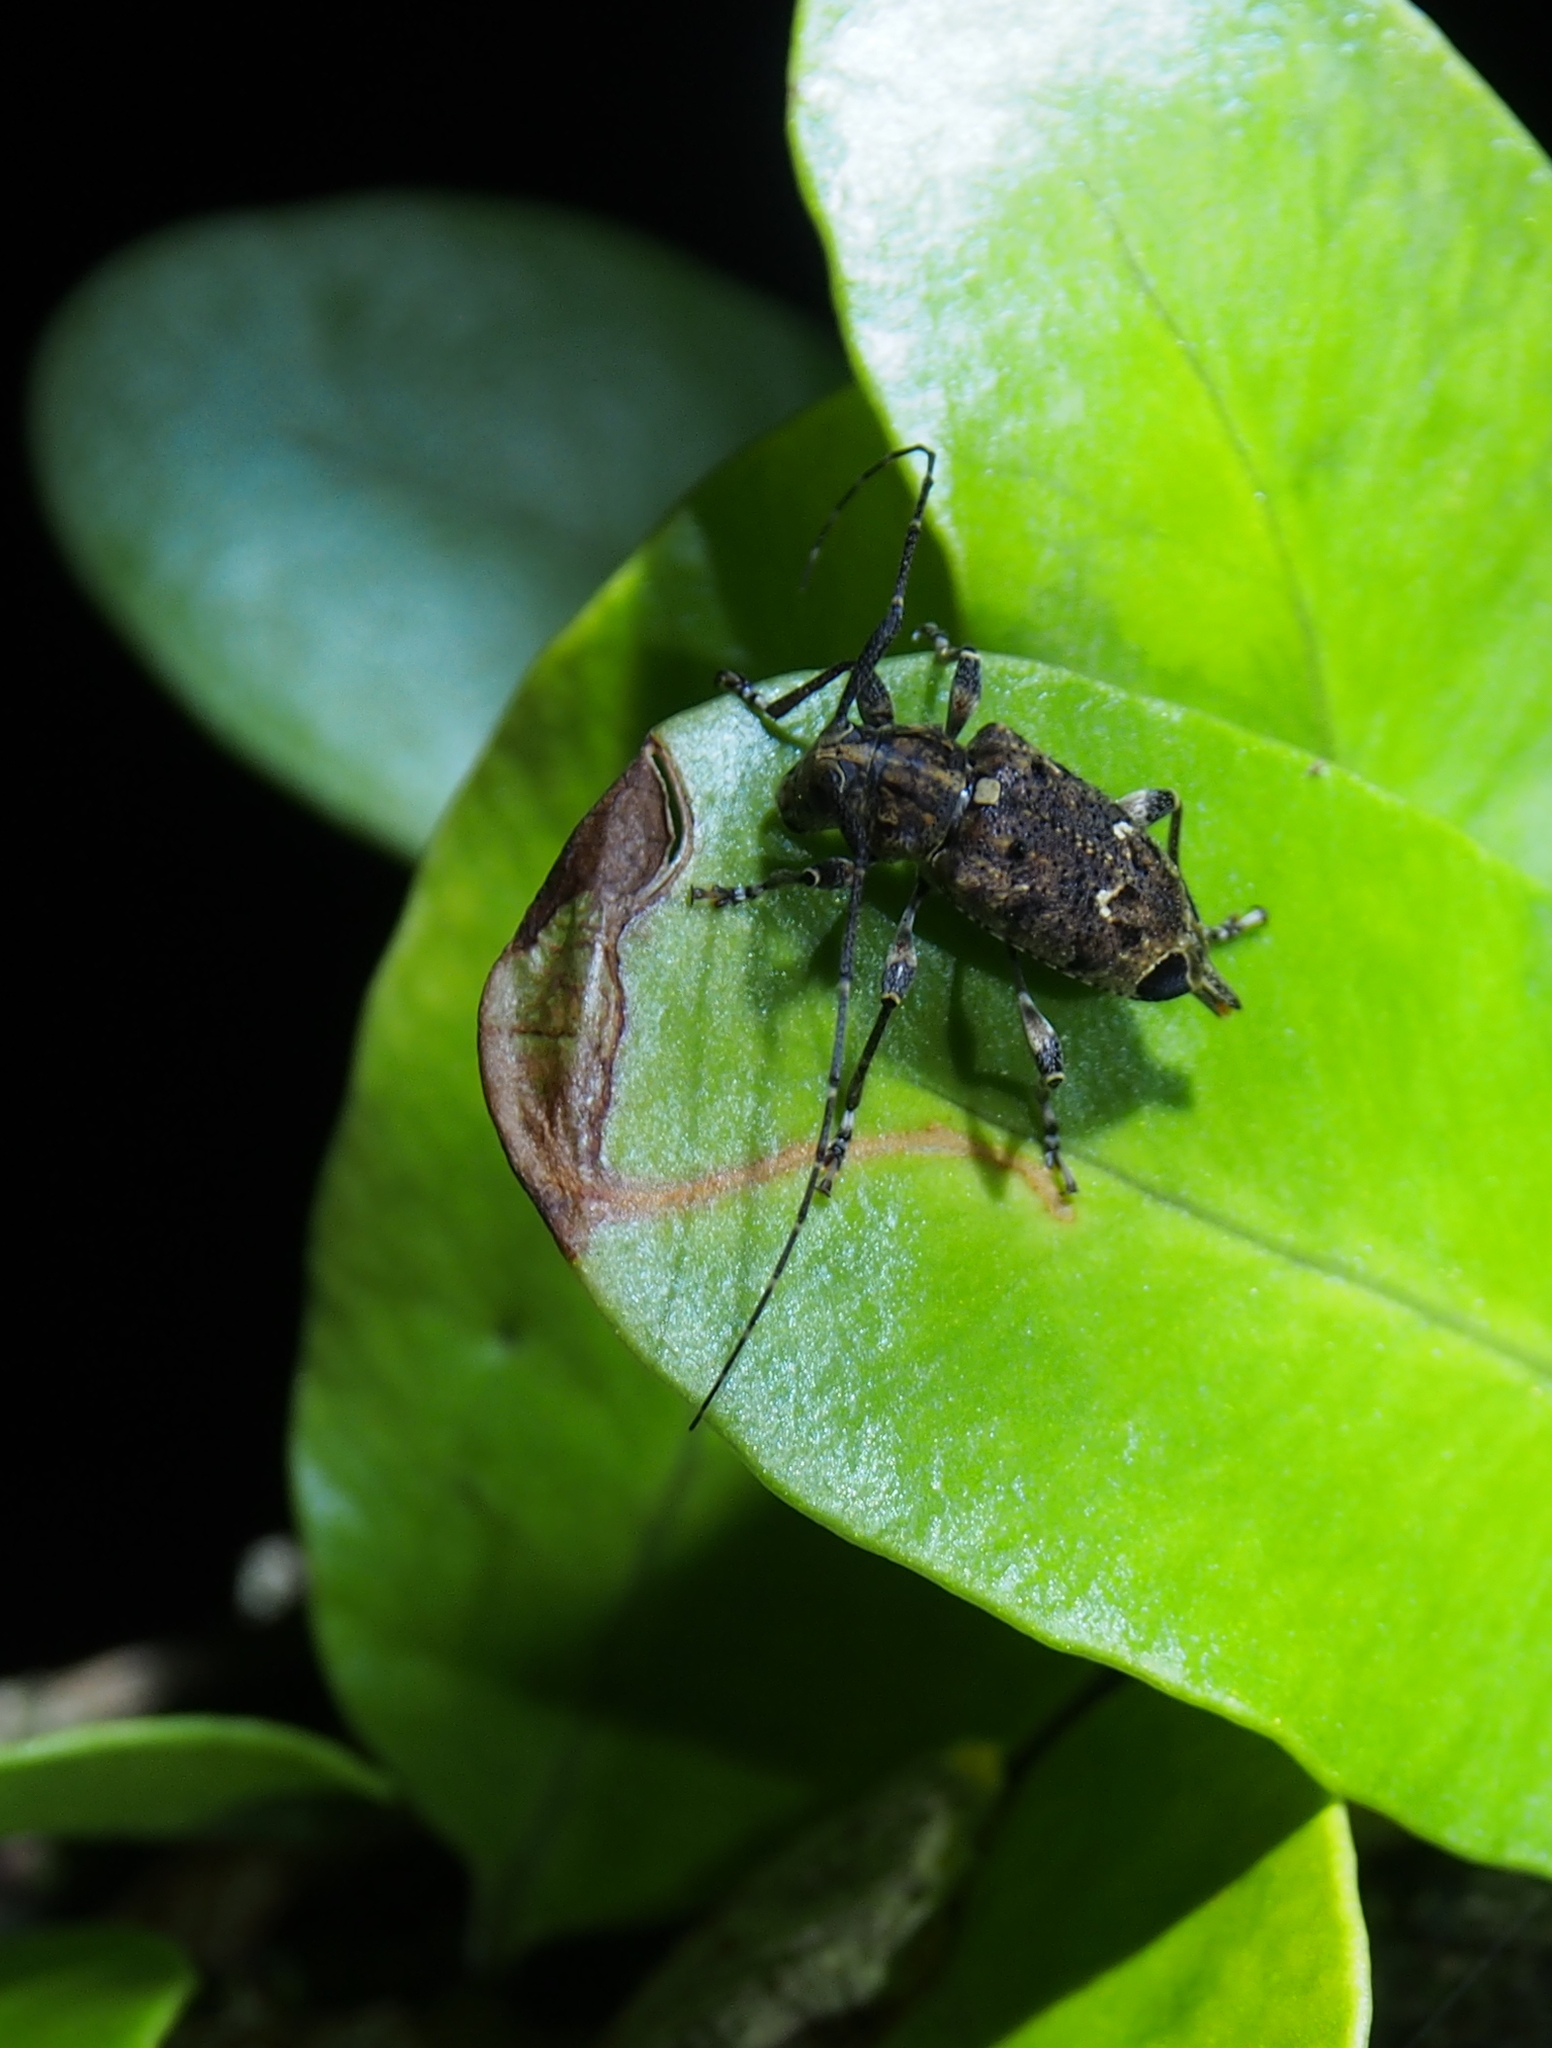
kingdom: Animalia
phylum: Arthropoda
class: Insecta
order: Coleoptera
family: Cerambycidae
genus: Oedopeza
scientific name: Oedopeza setigera
